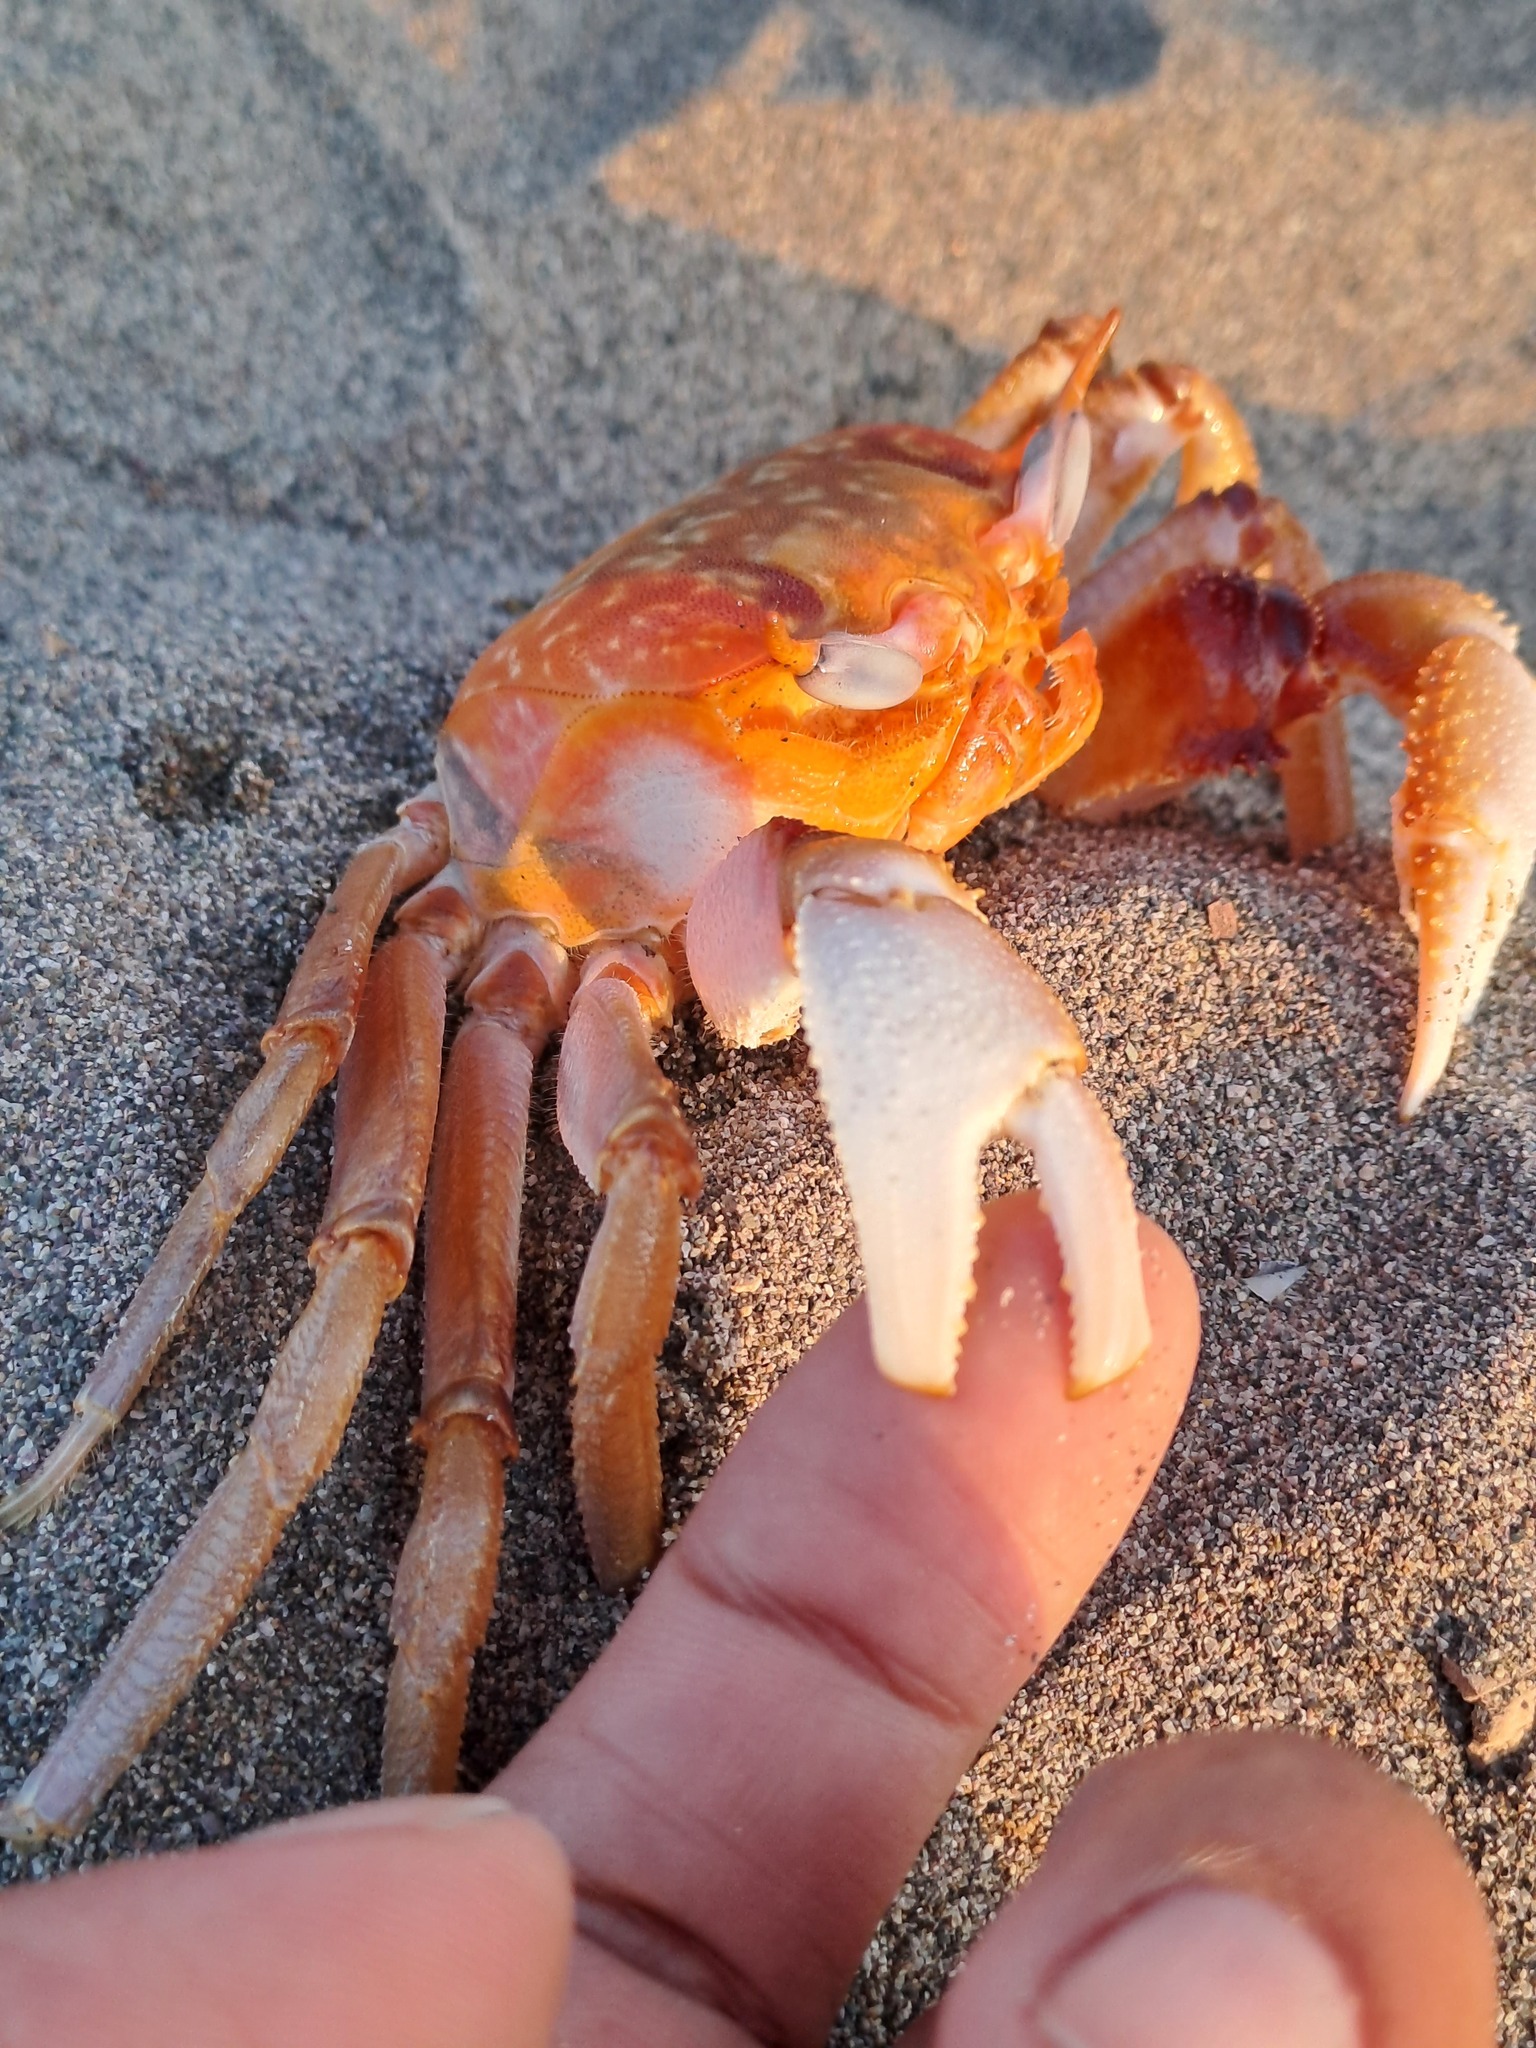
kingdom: Animalia
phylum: Arthropoda
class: Malacostraca
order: Decapoda
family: Ocypodidae
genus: Ocypode
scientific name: Ocypode gaudichaudii
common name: Pacific ghost crab
